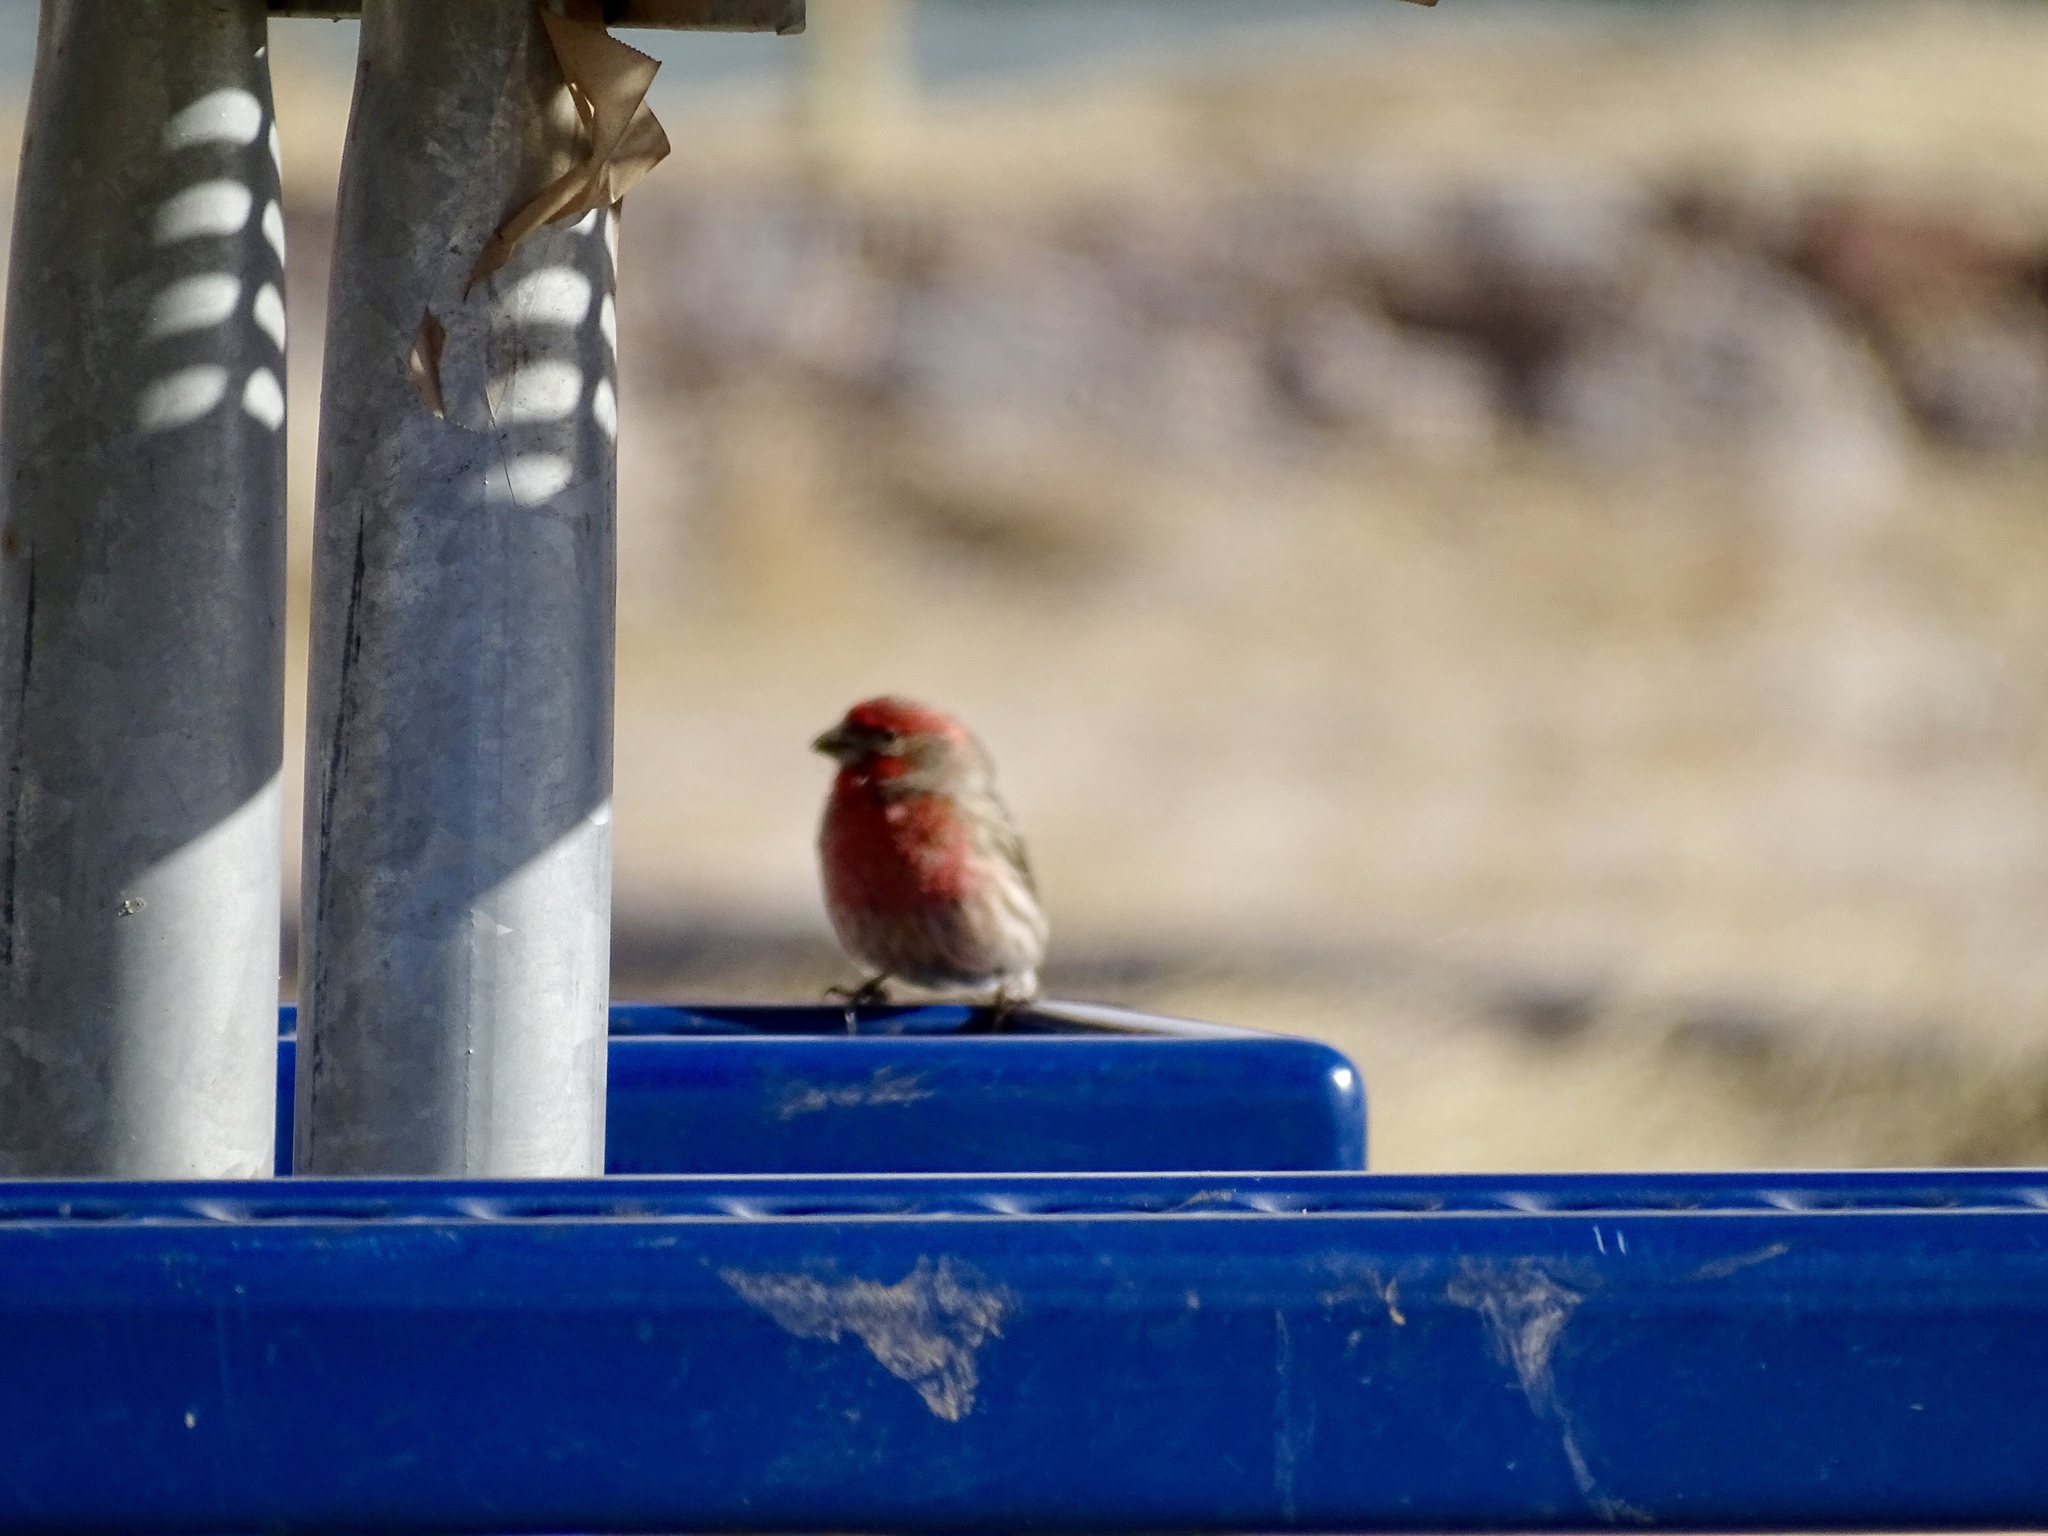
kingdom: Animalia
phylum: Chordata
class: Aves
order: Passeriformes
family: Fringillidae
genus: Haemorhous
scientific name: Haemorhous mexicanus
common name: House finch
